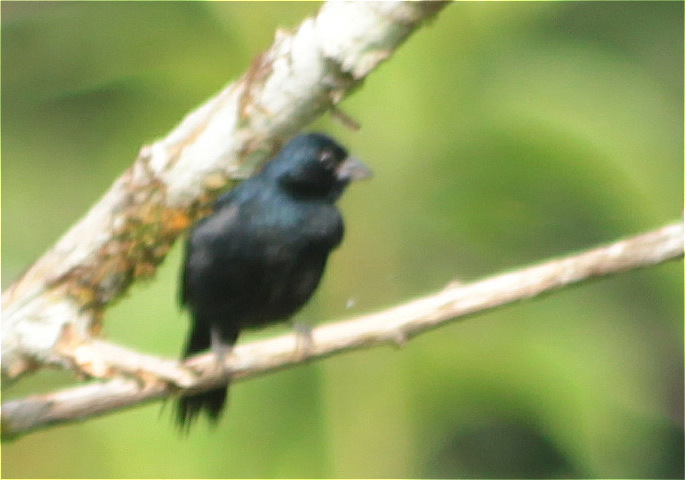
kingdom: Animalia
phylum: Chordata
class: Aves
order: Passeriformes
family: Thraupidae
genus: Volatinia
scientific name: Volatinia jacarina
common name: Blue-black grassquit
